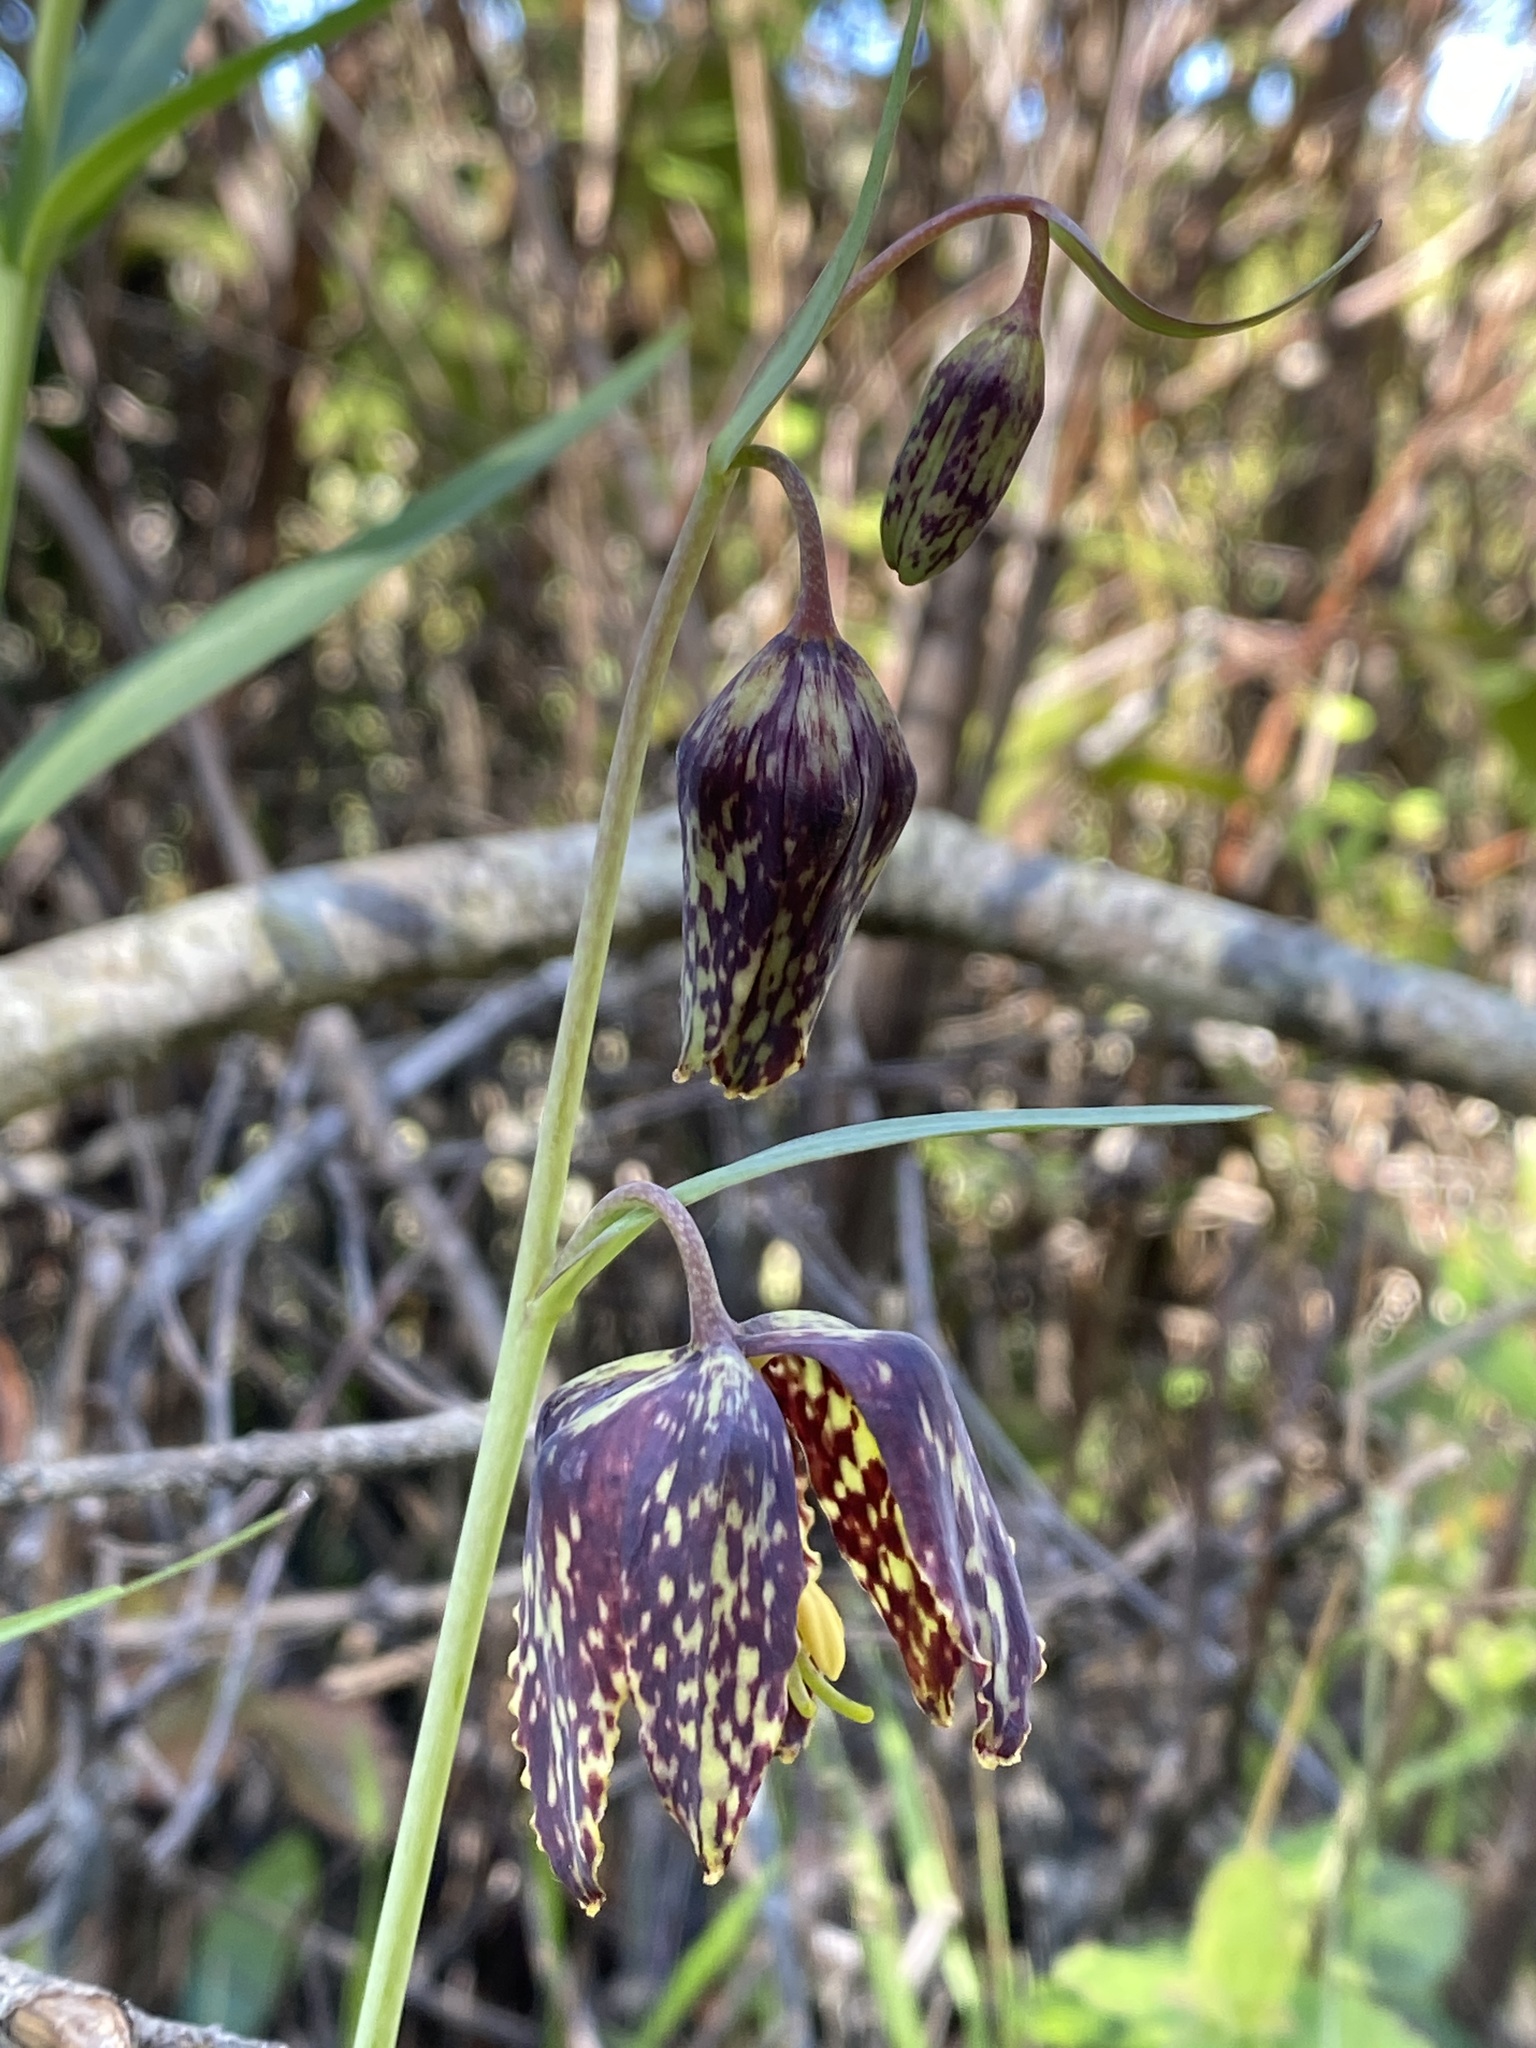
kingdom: Plantae
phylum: Tracheophyta
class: Liliopsida
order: Liliales
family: Liliaceae
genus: Fritillaria
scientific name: Fritillaria affinis
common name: Ojai fritillary
